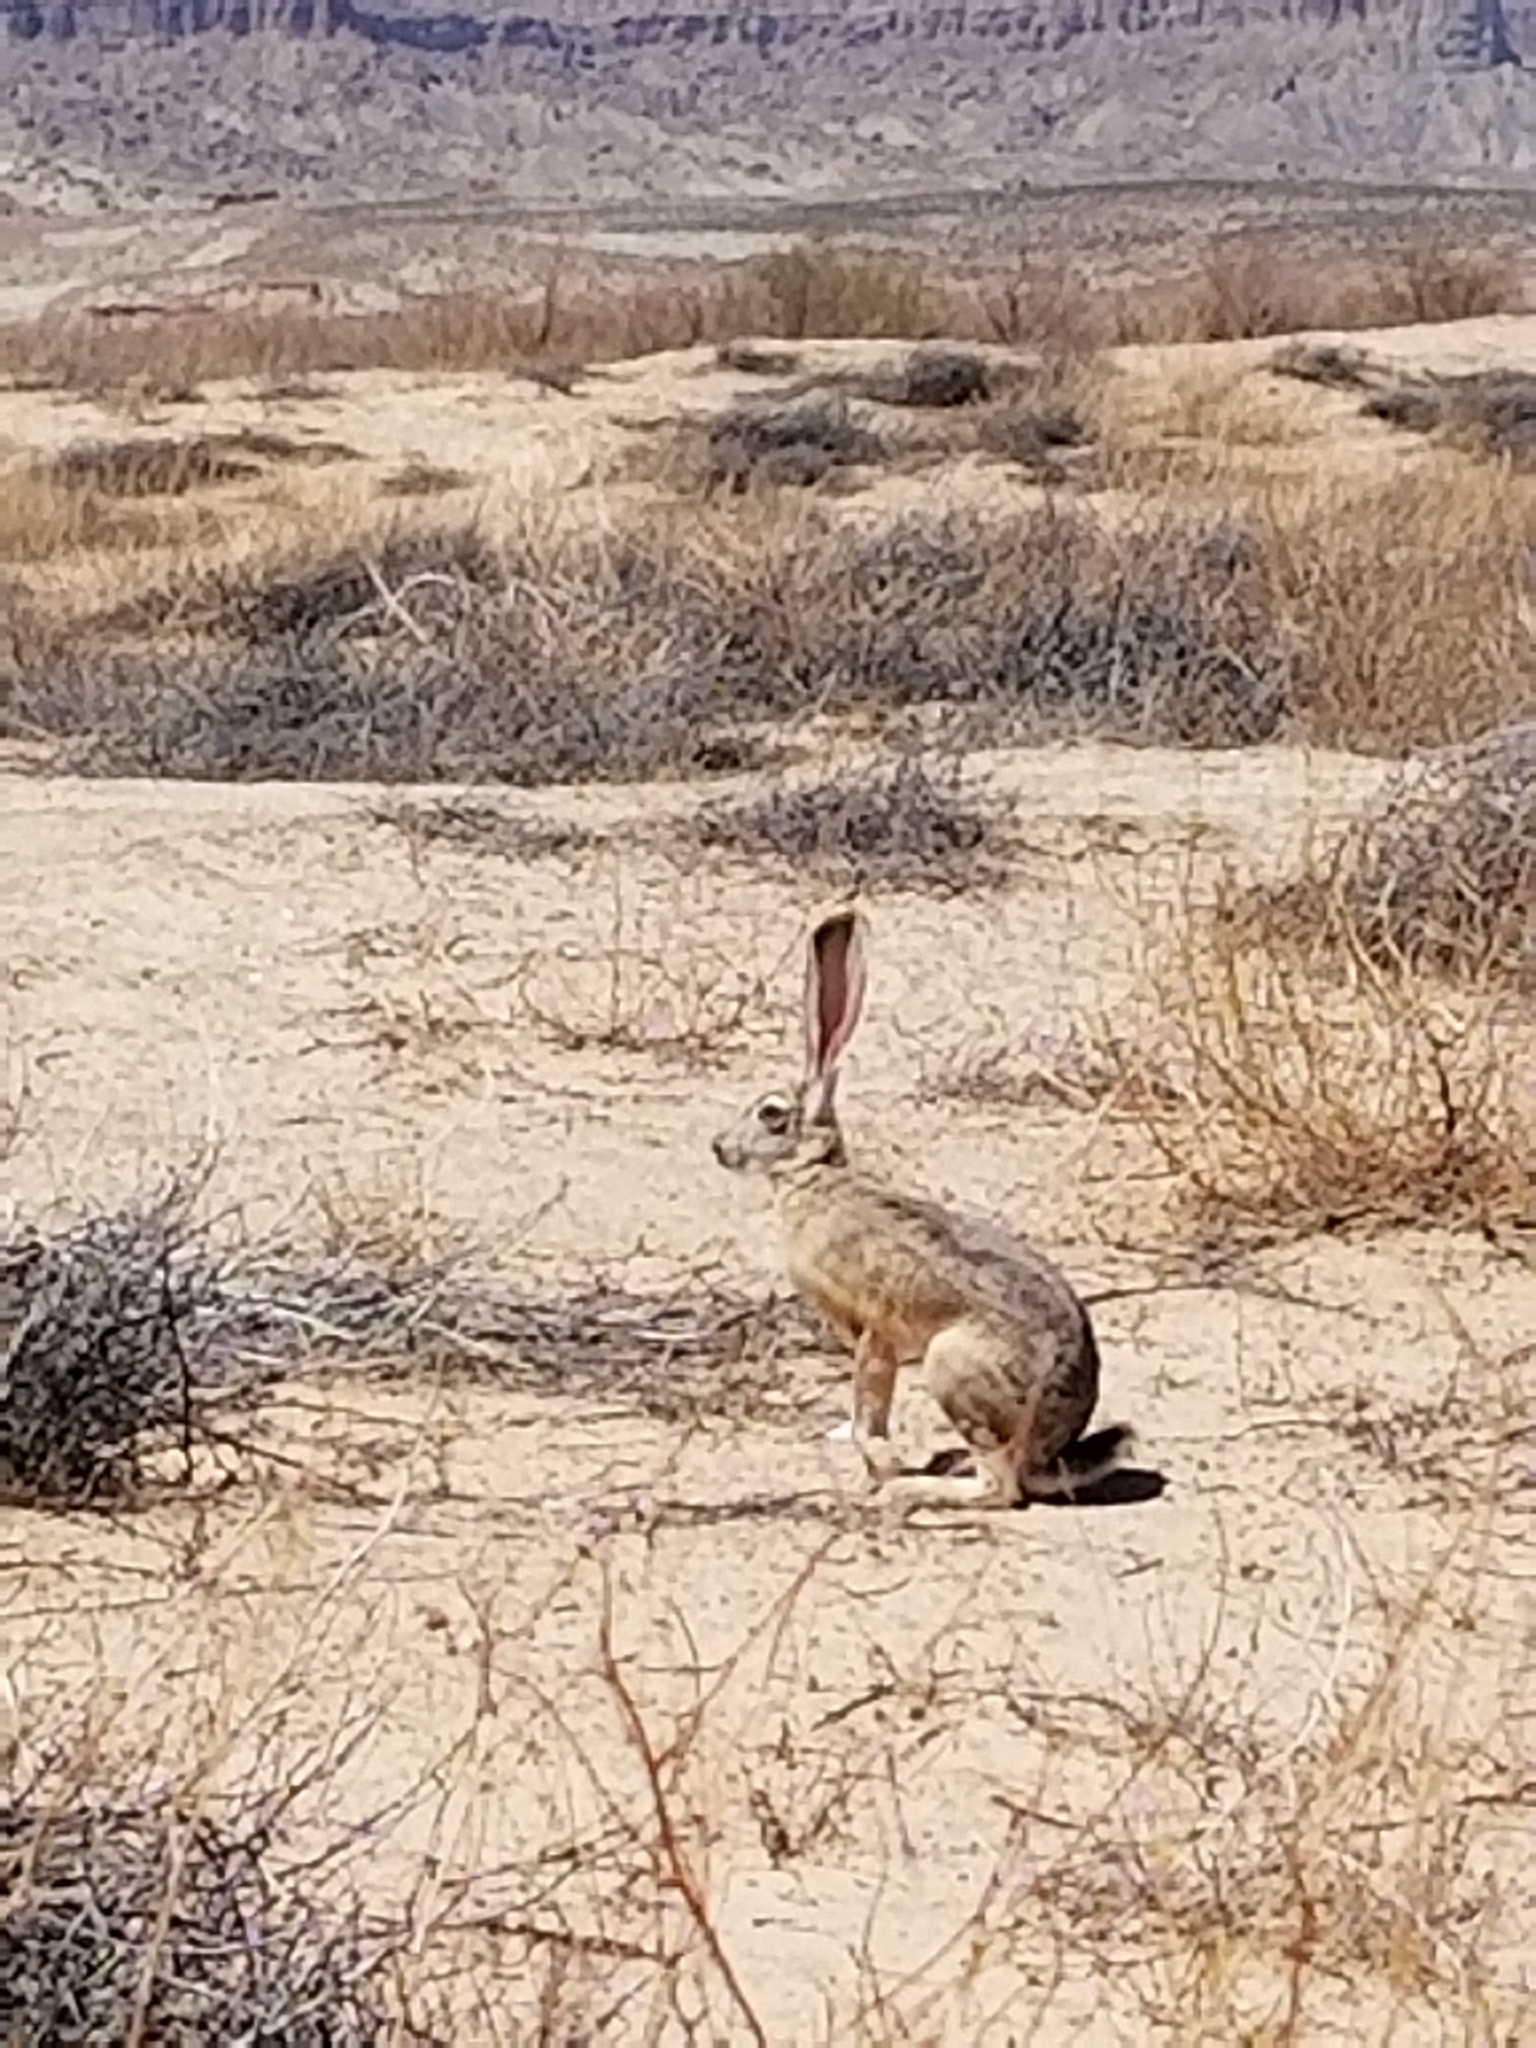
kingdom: Animalia
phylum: Chordata
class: Mammalia
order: Lagomorpha
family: Leporidae
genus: Lepus
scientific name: Lepus californicus
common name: Black-tailed jackrabbit
